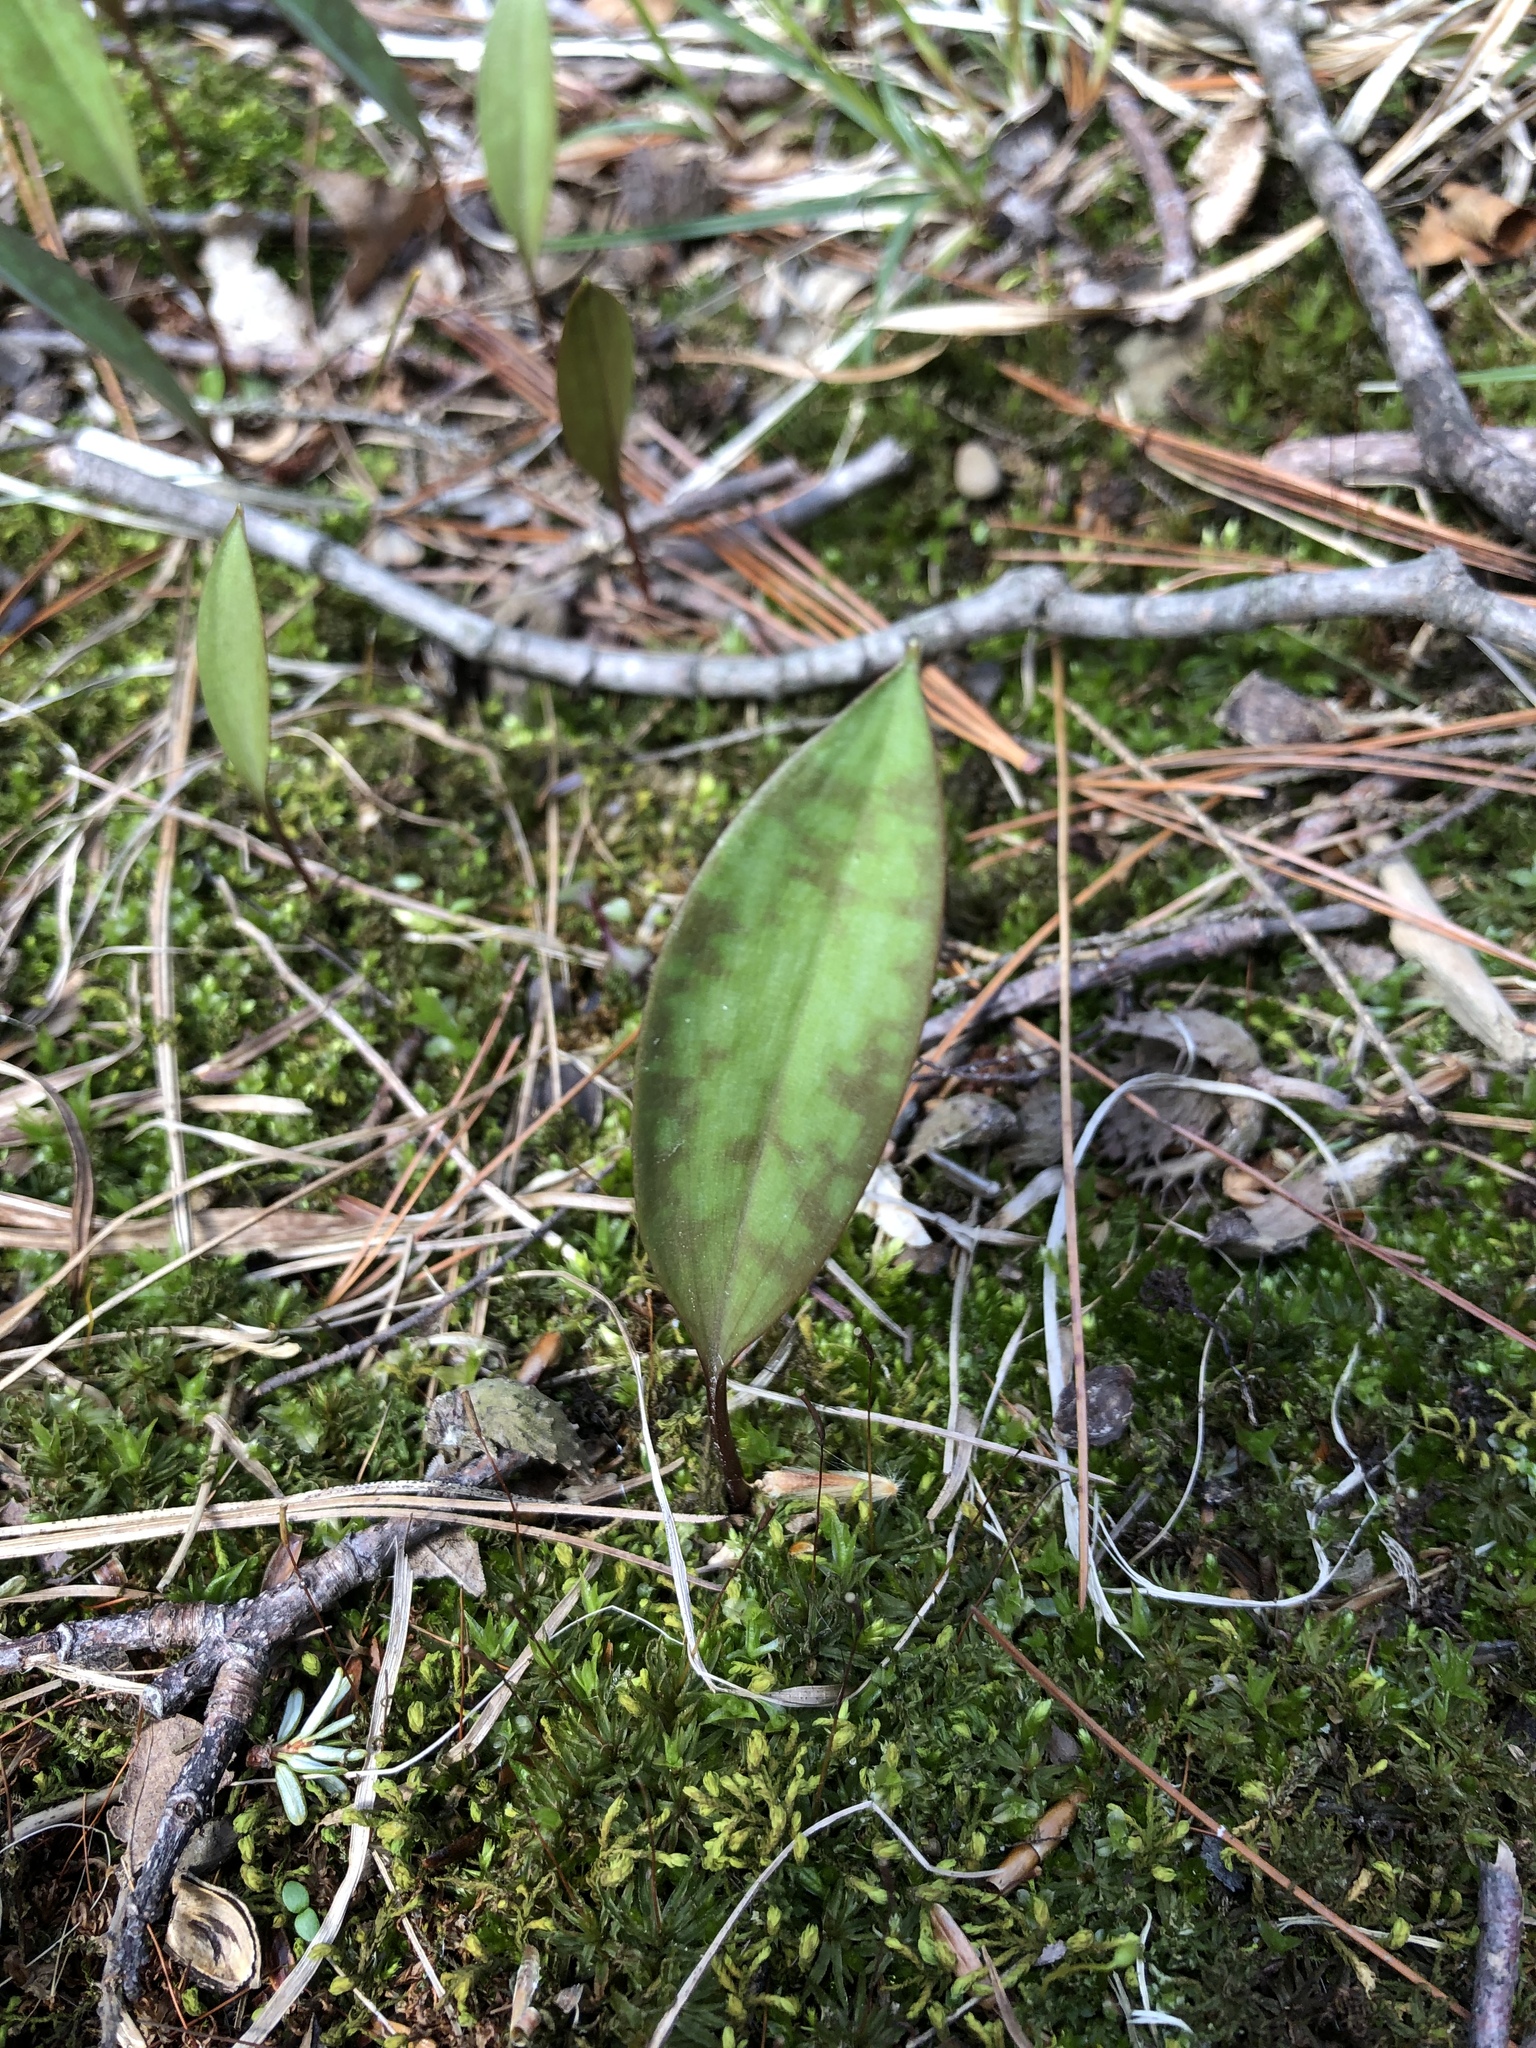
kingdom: Plantae
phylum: Tracheophyta
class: Liliopsida
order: Liliales
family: Liliaceae
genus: Erythronium
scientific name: Erythronium americanum
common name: Yellow adder's-tongue
